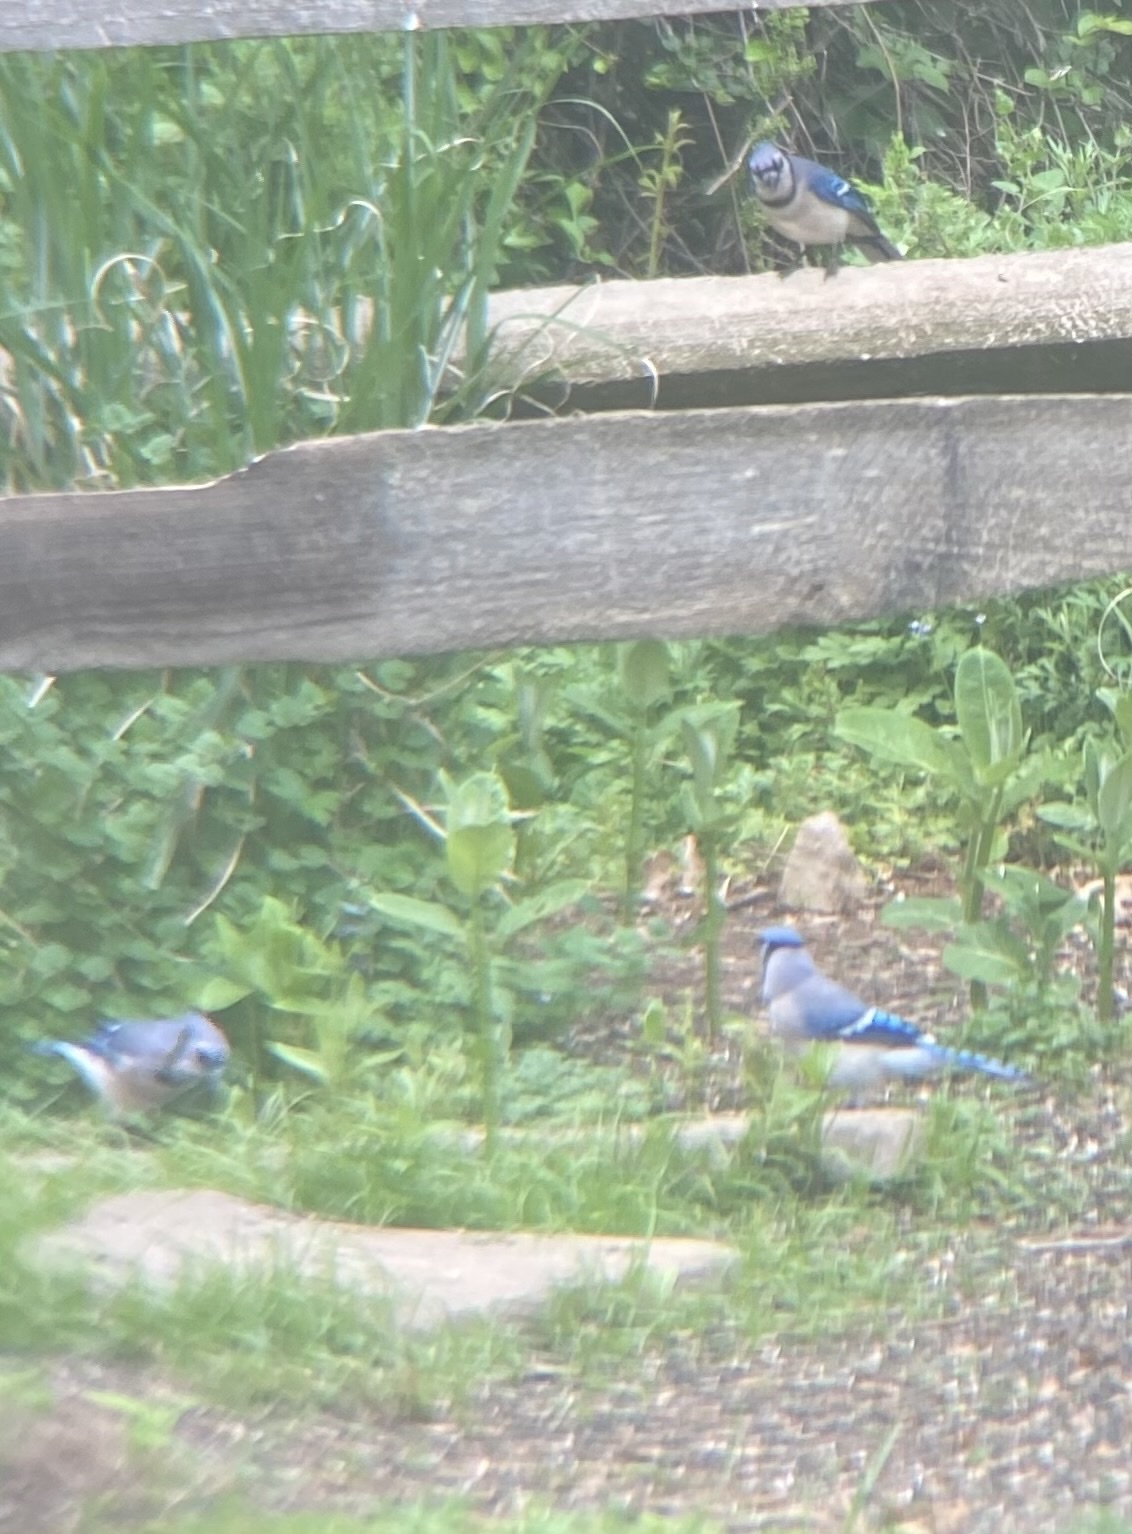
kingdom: Animalia
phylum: Chordata
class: Aves
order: Passeriformes
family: Corvidae
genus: Cyanocitta
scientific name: Cyanocitta cristata
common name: Blue jay
